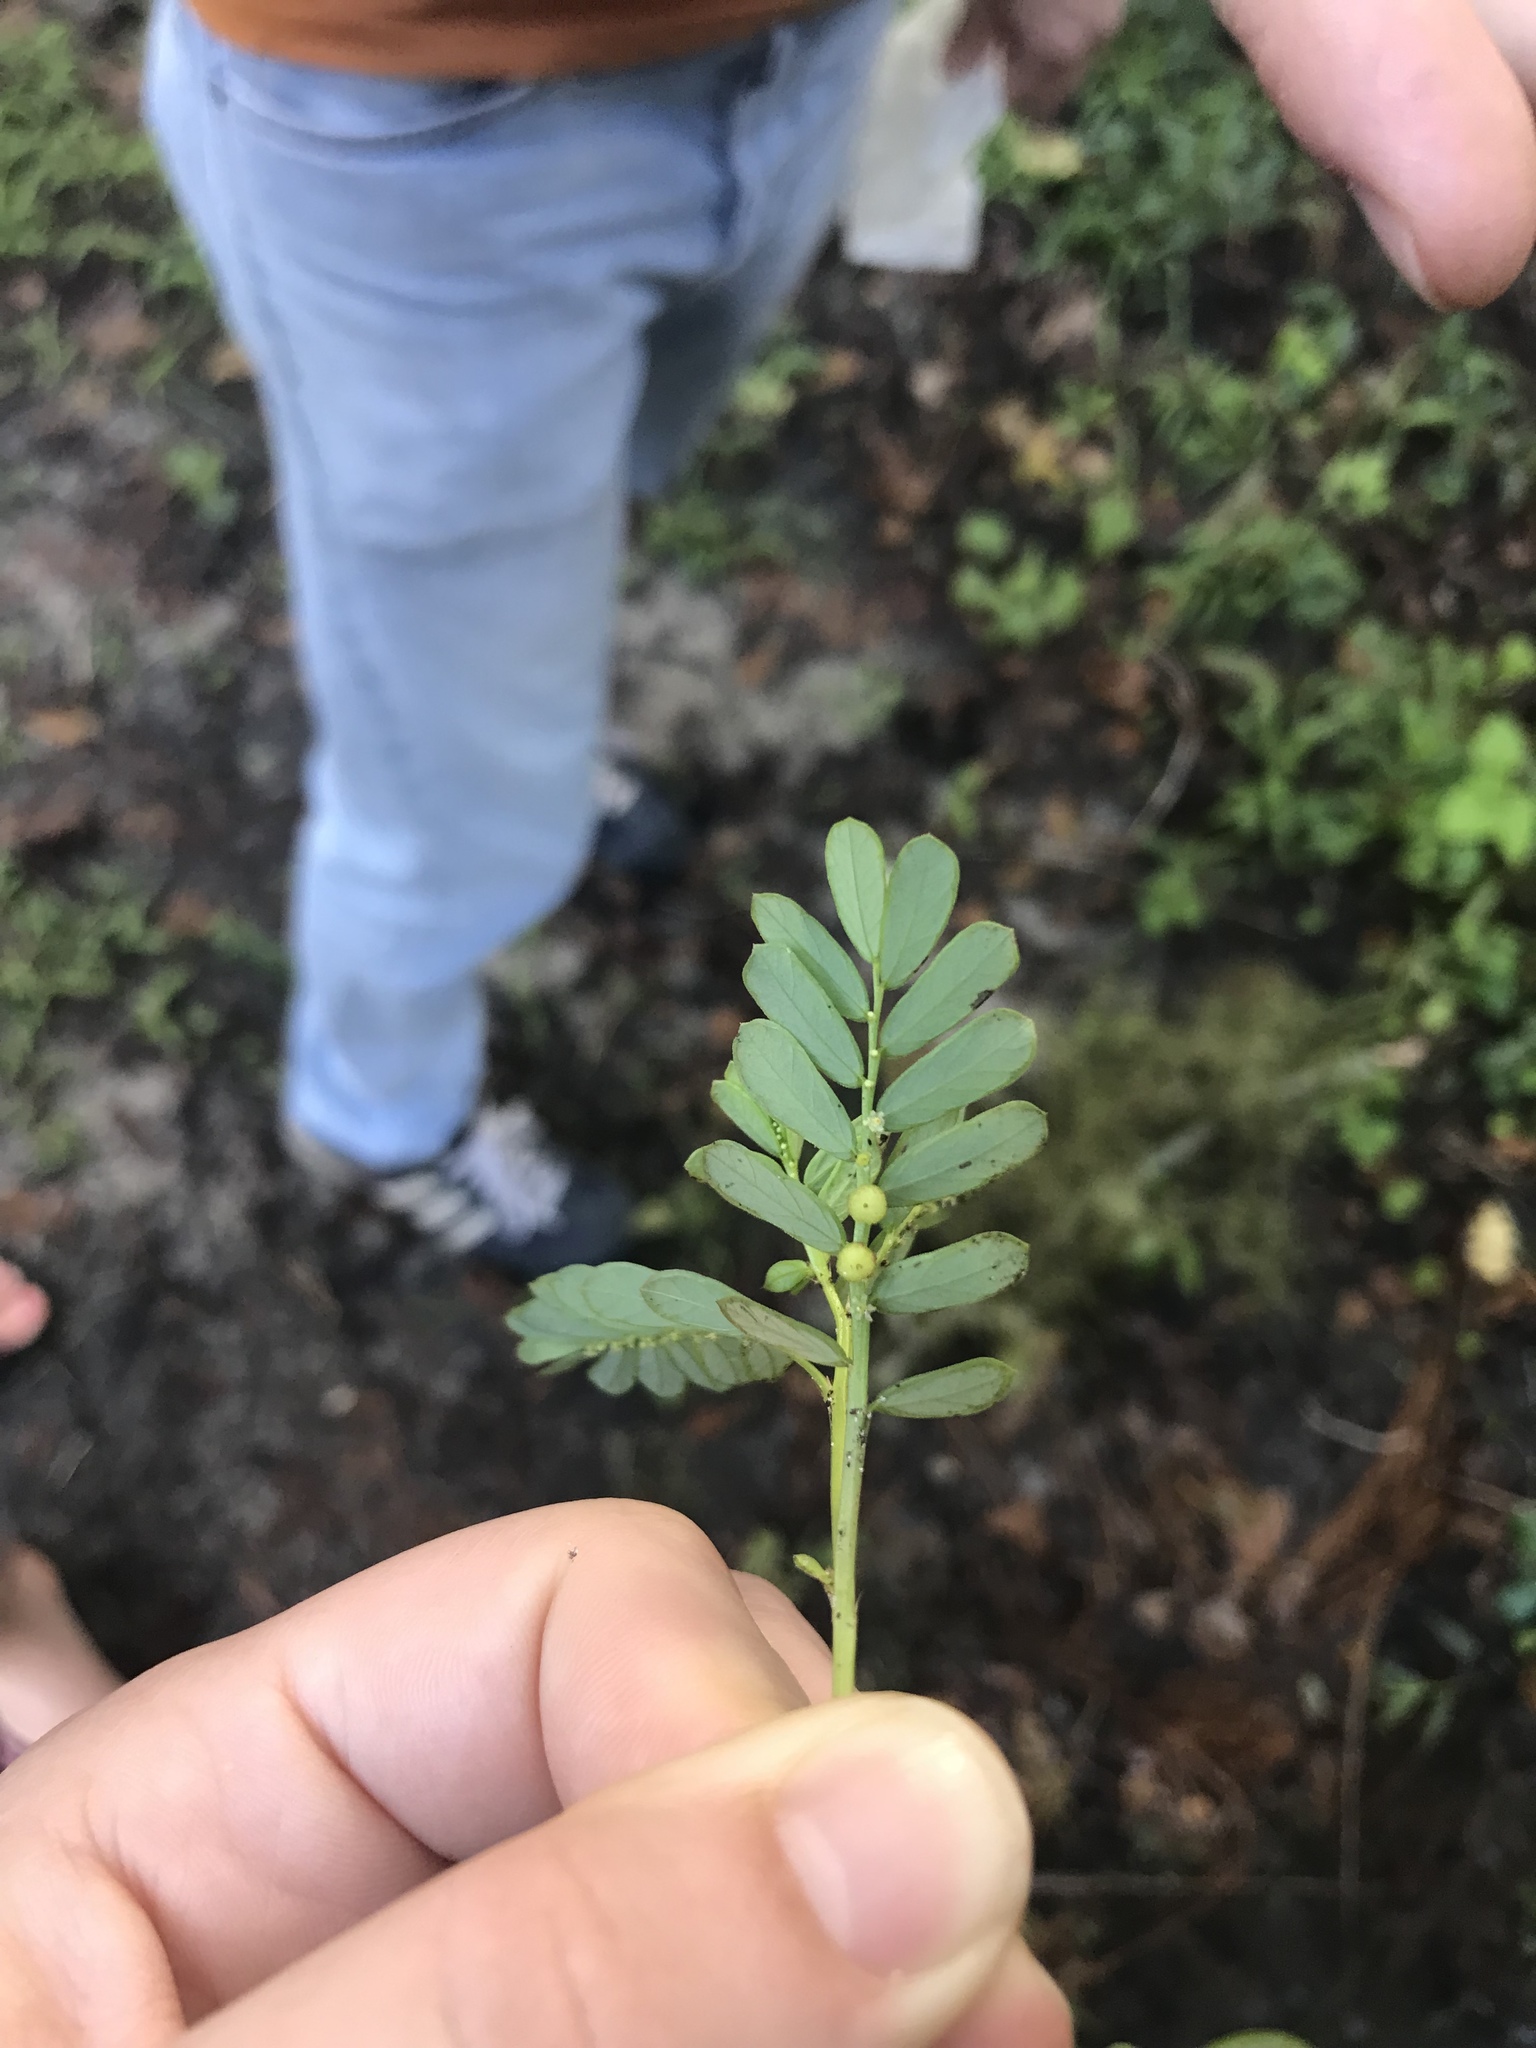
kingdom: Plantae
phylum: Tracheophyta
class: Magnoliopsida
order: Malpighiales
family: Phyllanthaceae
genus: Phyllanthus
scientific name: Phyllanthus urinaria
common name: Chamber bitter
